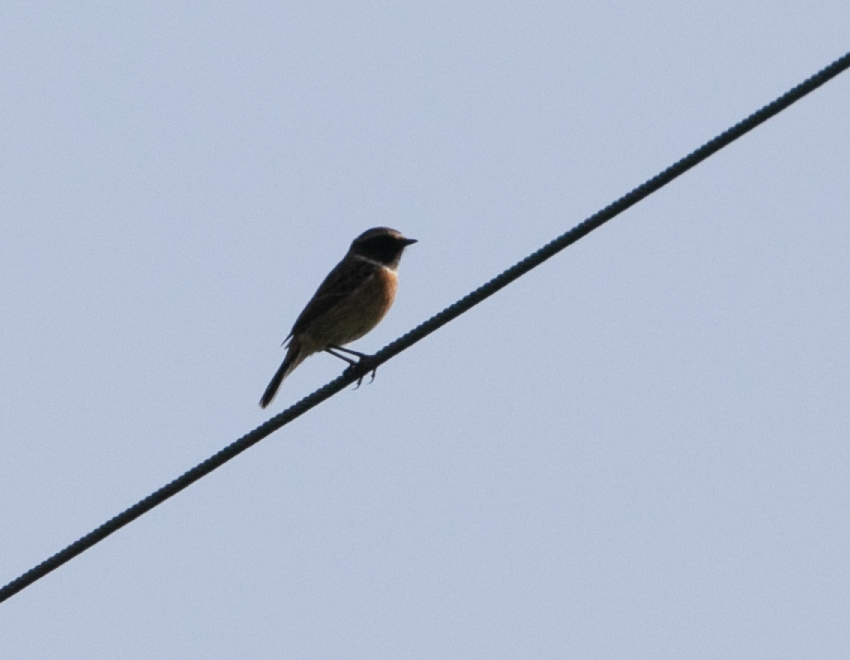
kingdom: Animalia
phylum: Chordata
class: Aves
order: Passeriformes
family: Muscicapidae
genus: Saxicola
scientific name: Saxicola rubicola
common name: European stonechat
